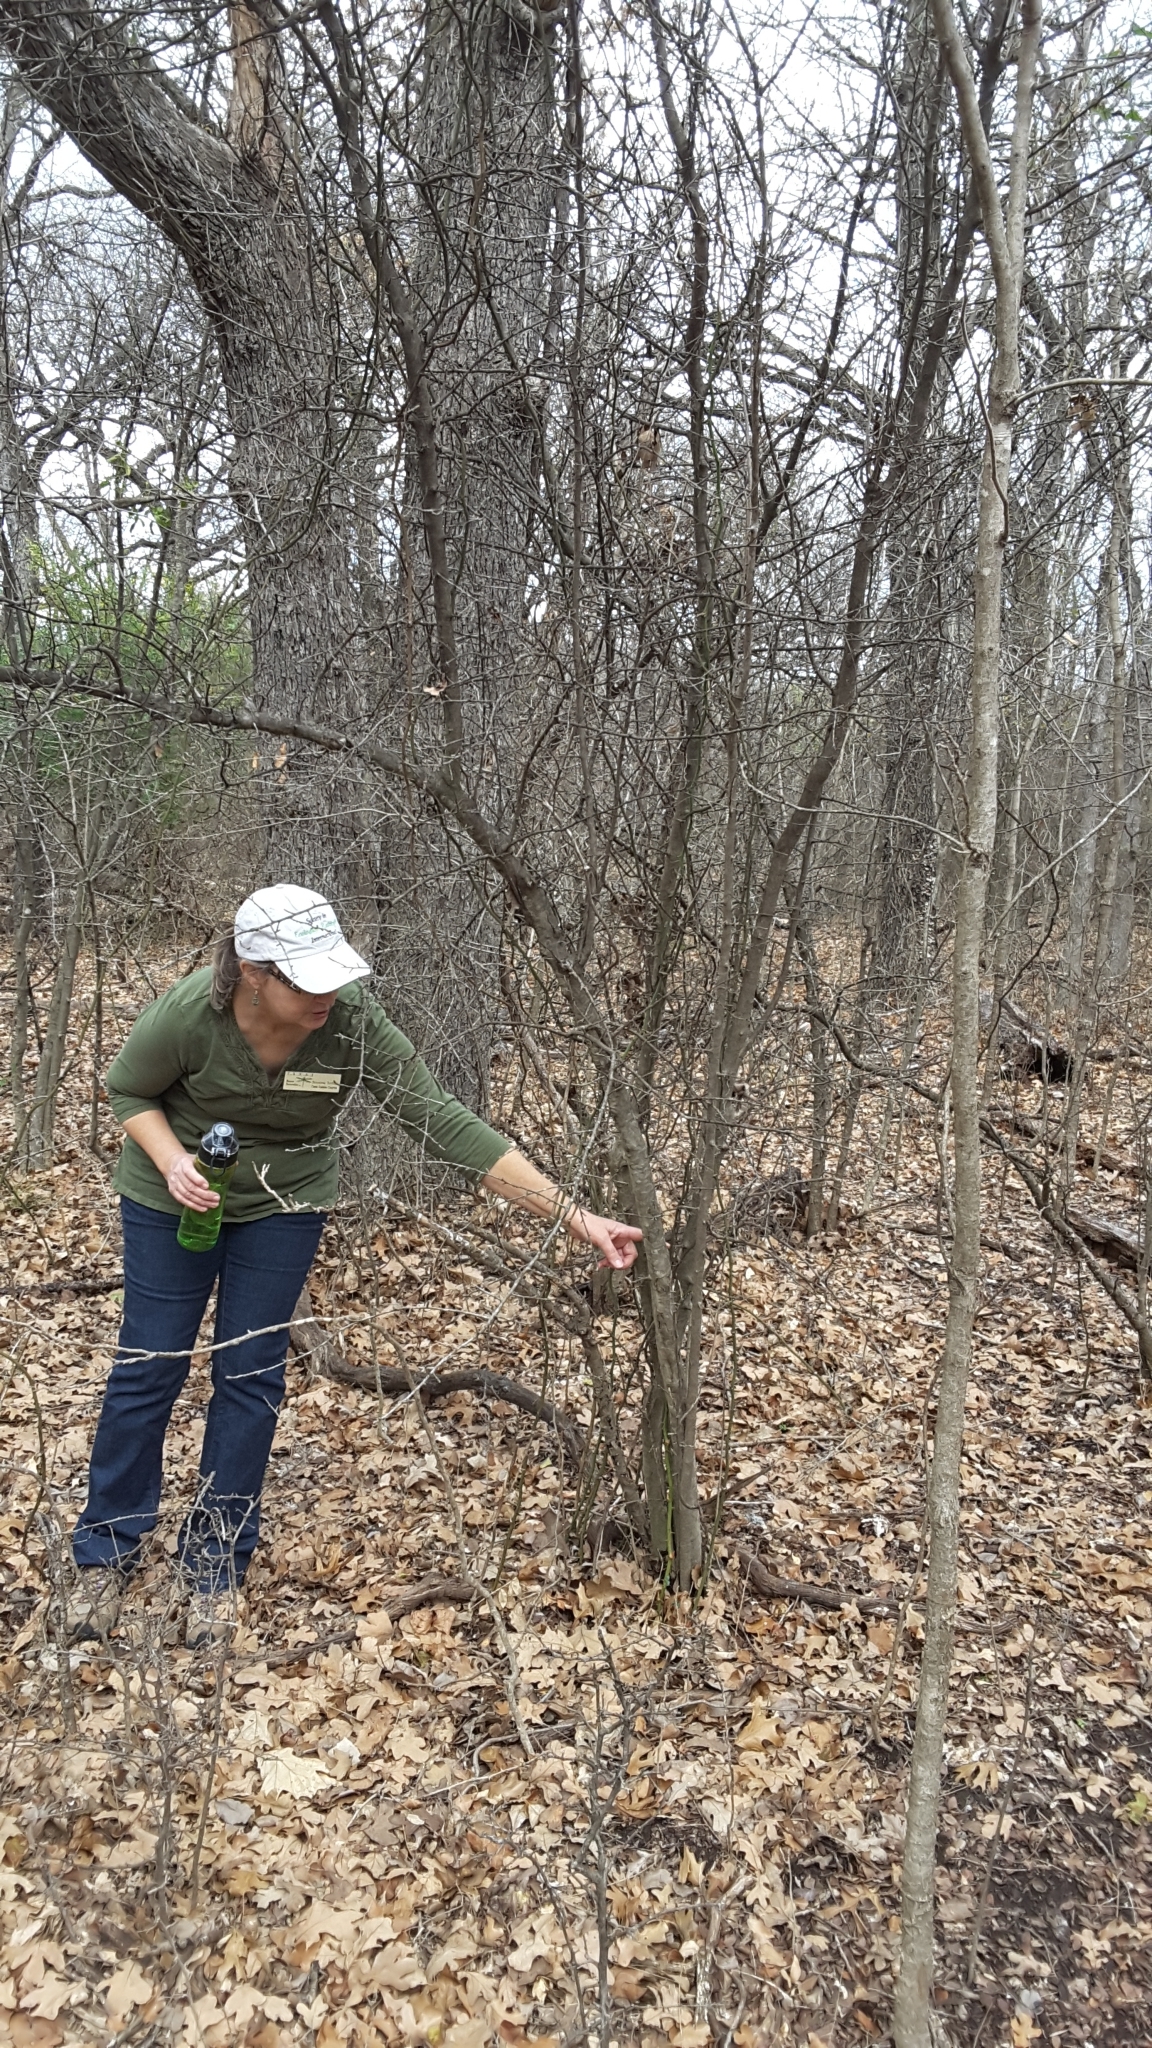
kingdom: Plantae
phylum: Tracheophyta
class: Magnoliopsida
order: Aquifoliales
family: Aquifoliaceae
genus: Ilex
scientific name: Ilex decidua
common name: Possum-haw
